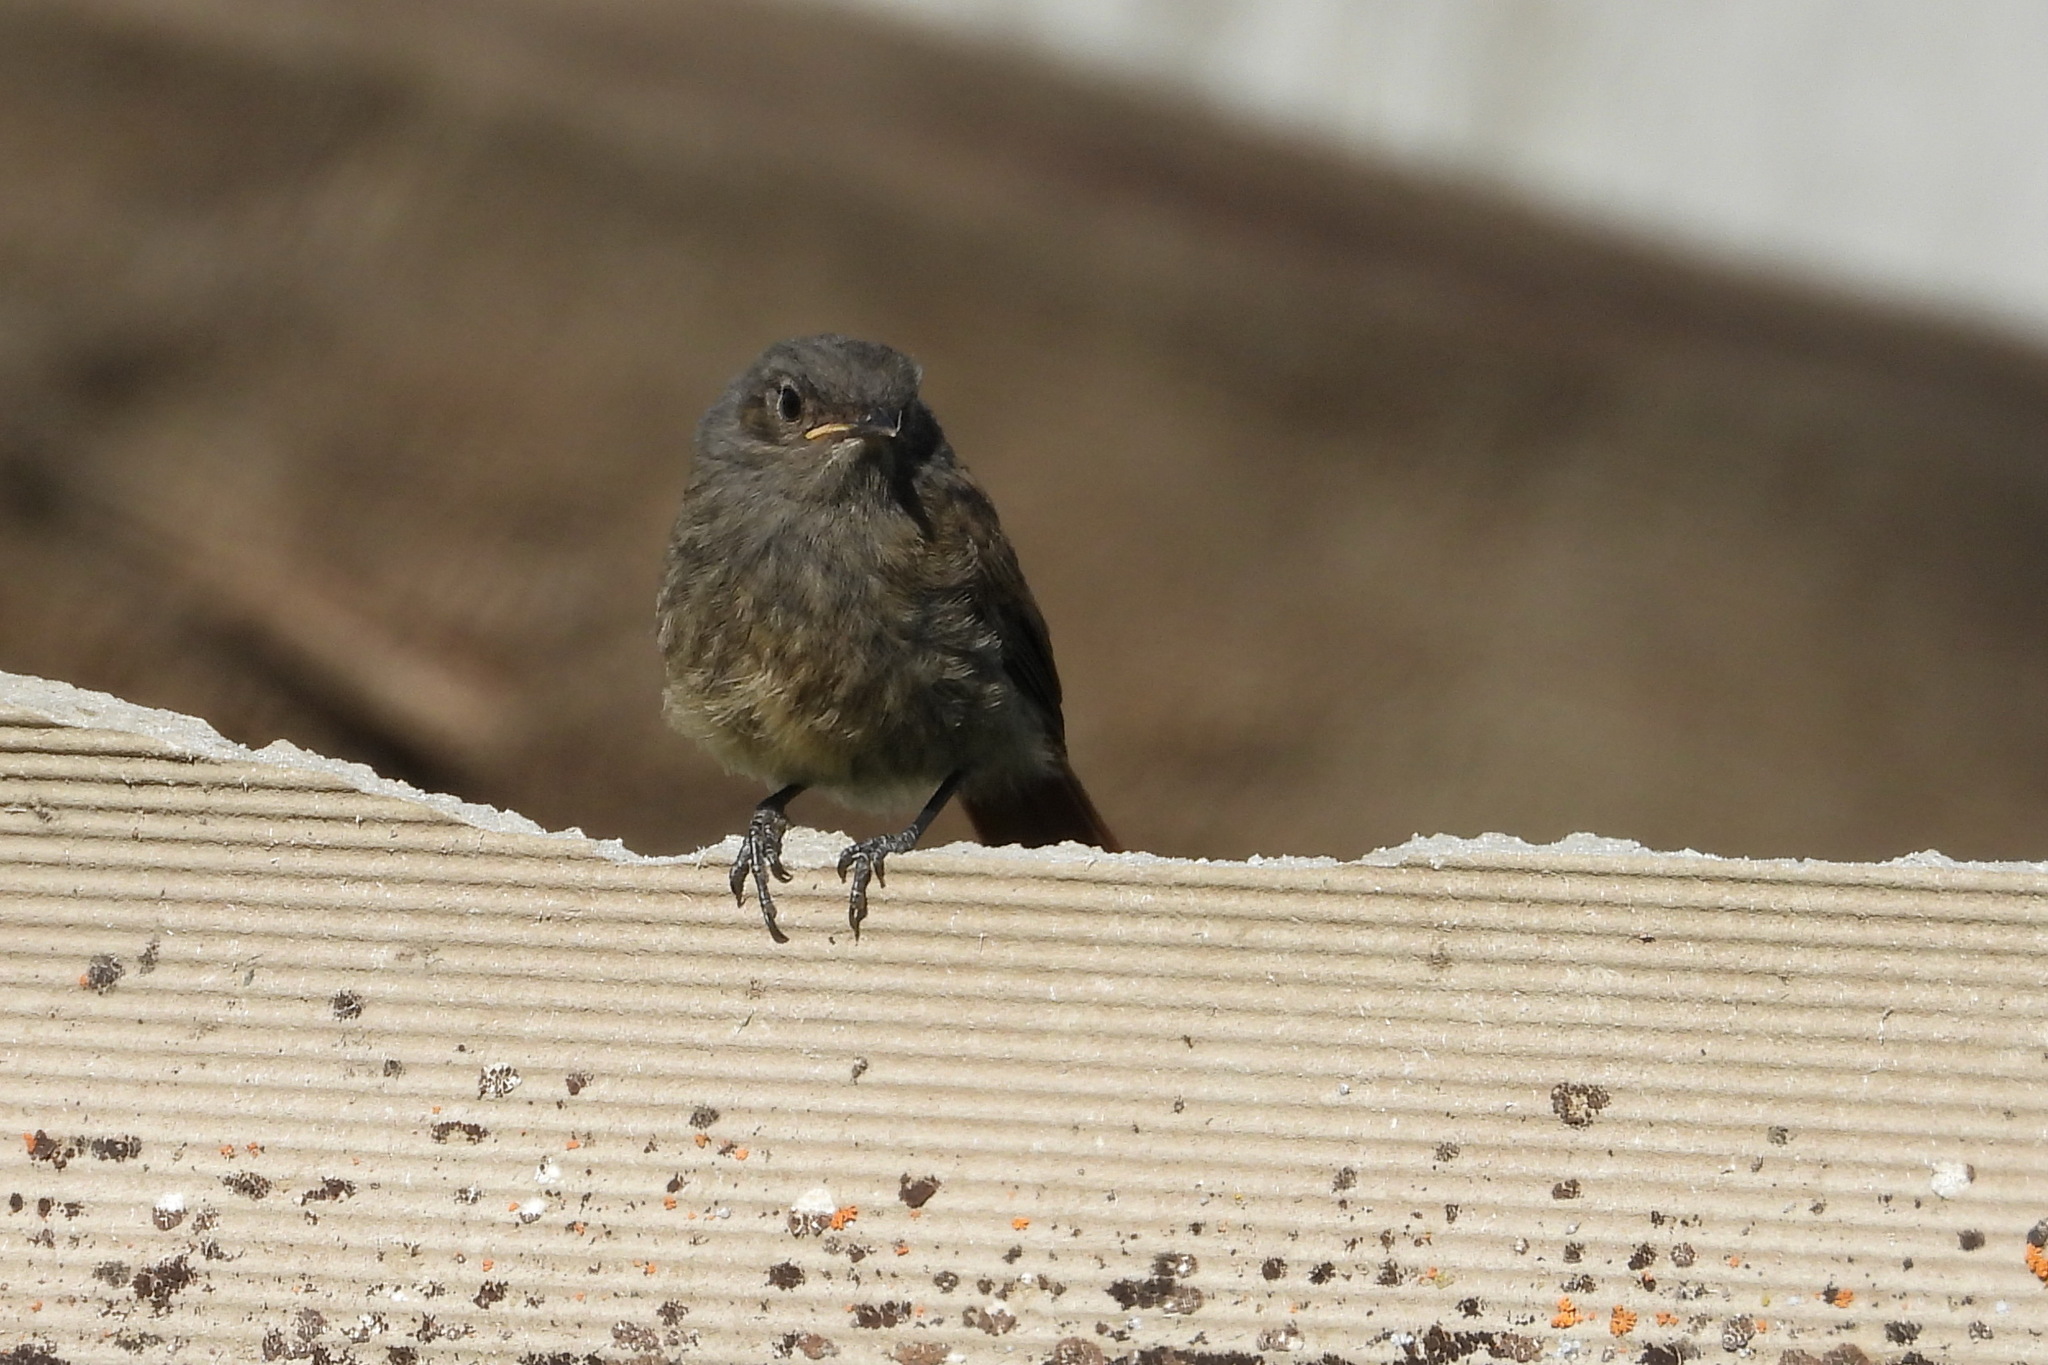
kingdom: Animalia
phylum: Chordata
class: Aves
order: Passeriformes
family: Muscicapidae
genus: Phoenicurus
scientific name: Phoenicurus ochruros
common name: Black redstart
